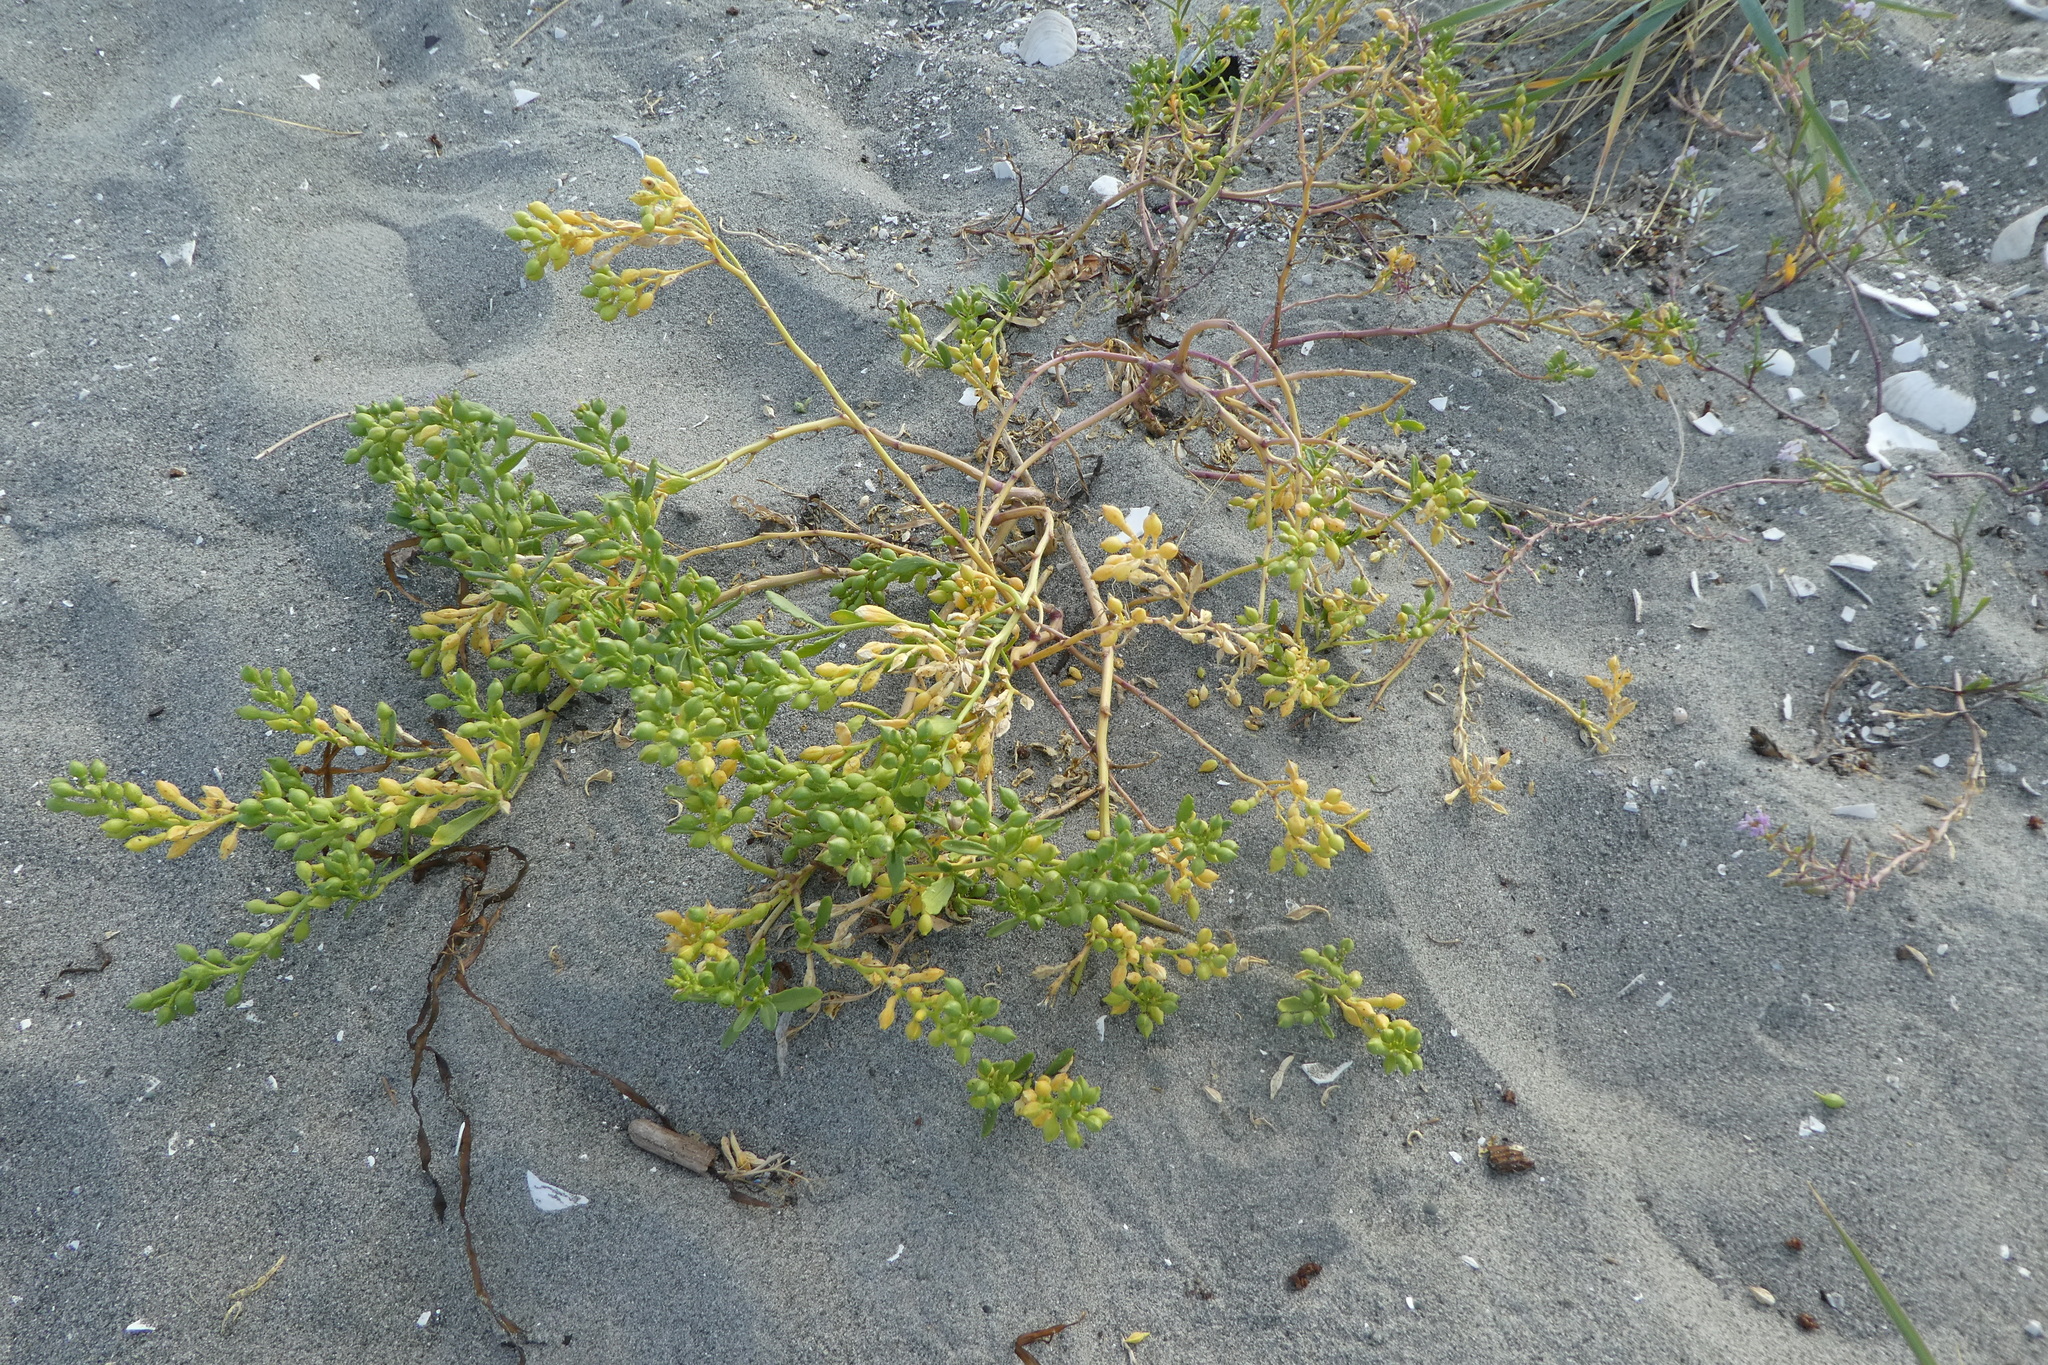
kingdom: Plantae
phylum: Tracheophyta
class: Magnoliopsida
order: Brassicales
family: Brassicaceae
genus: Cakile
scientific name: Cakile edentula
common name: American sea rocket
